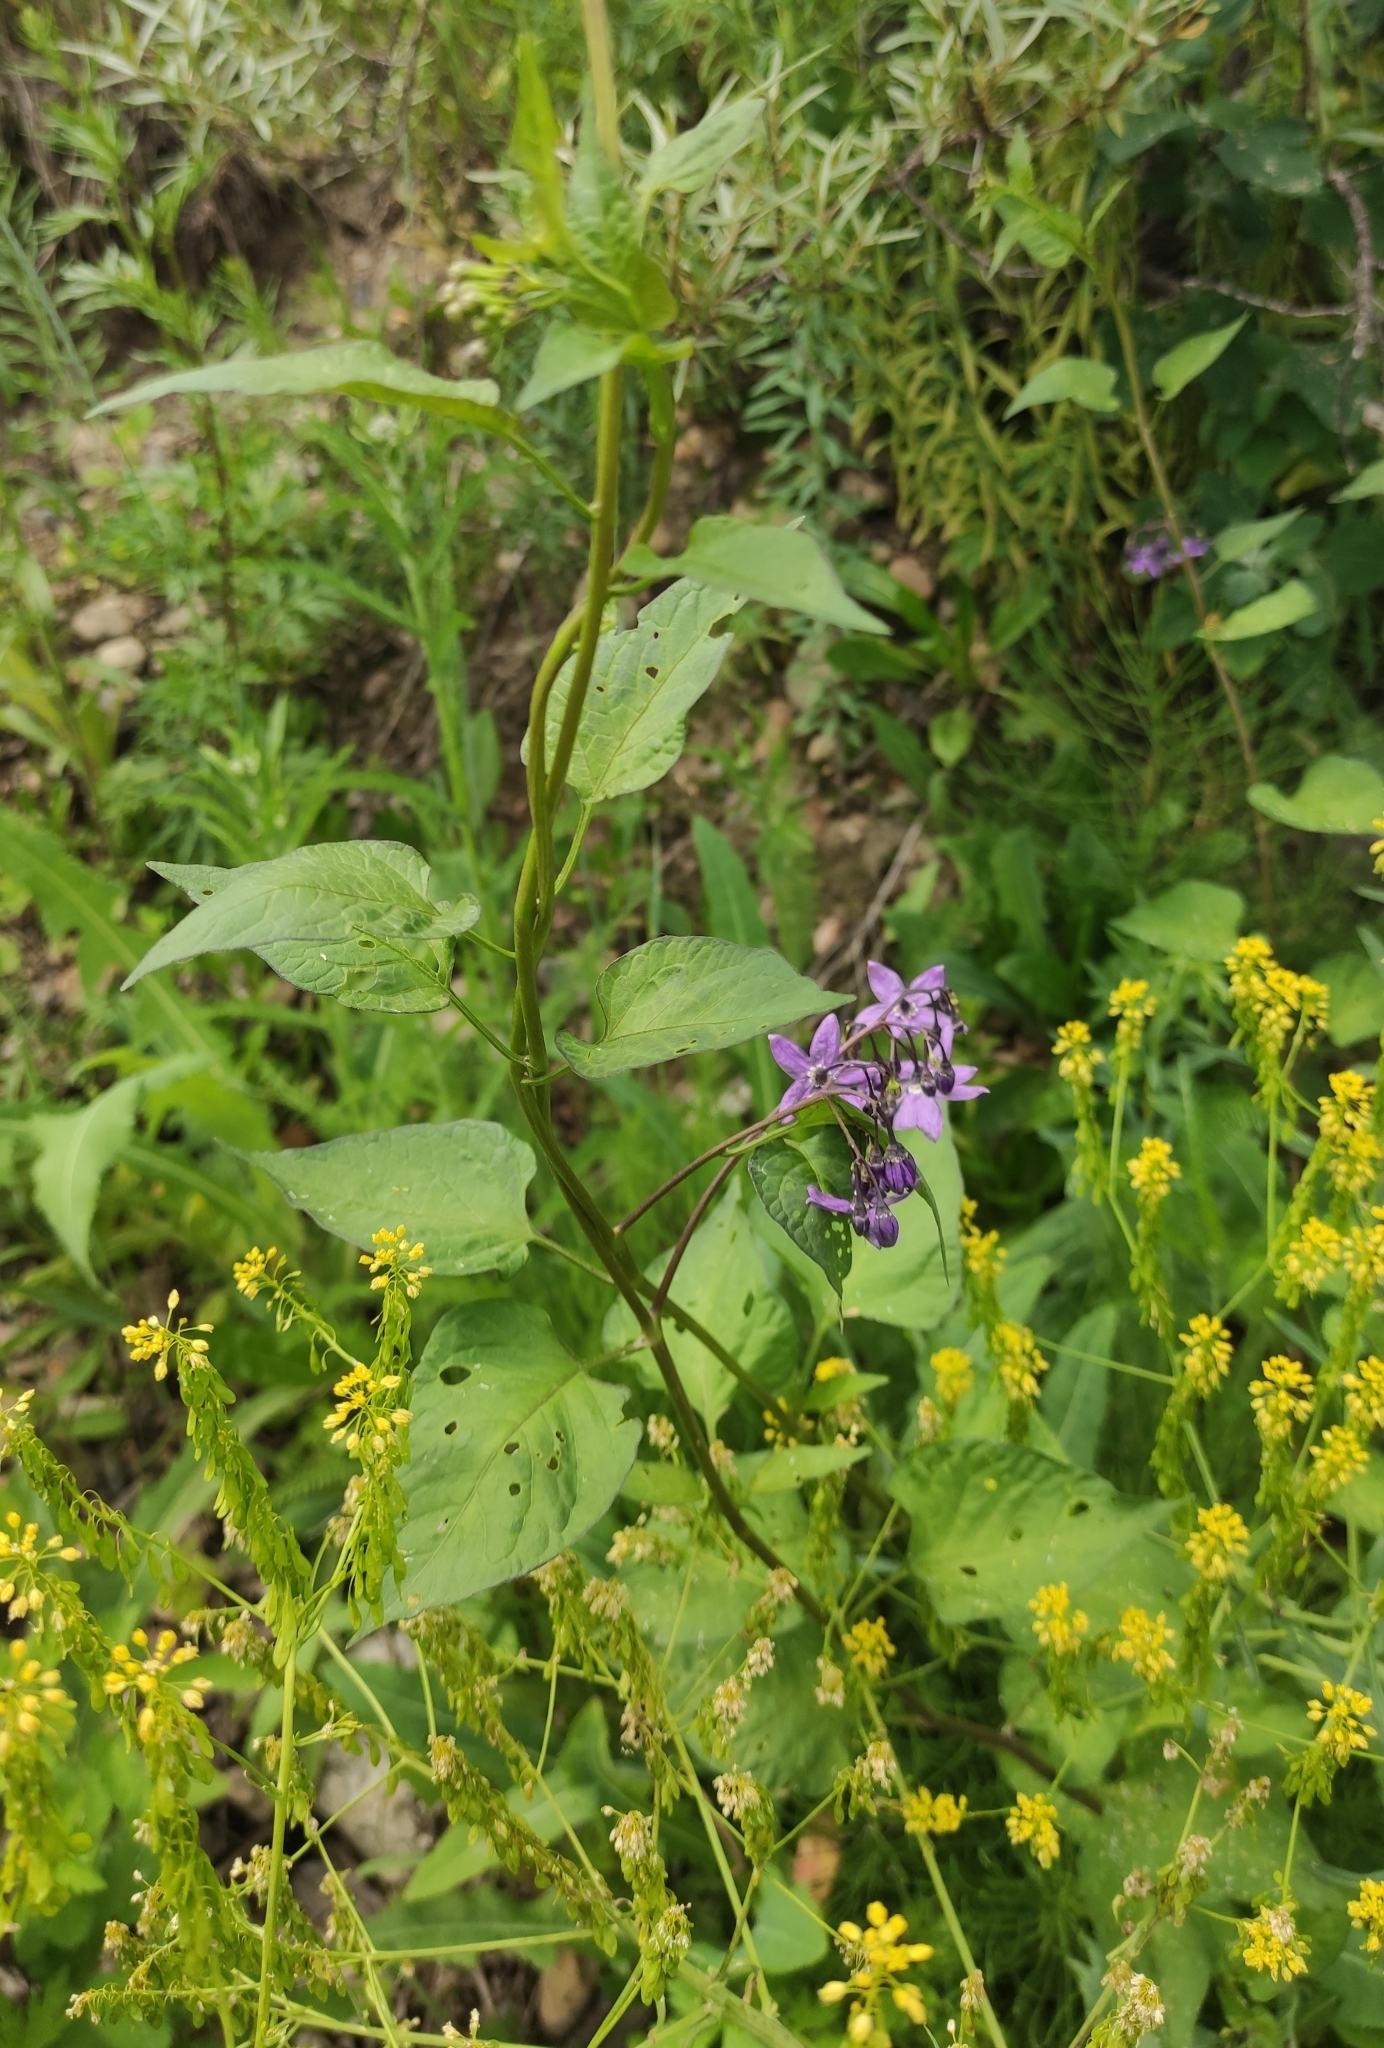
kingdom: Plantae
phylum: Tracheophyta
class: Magnoliopsida
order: Solanales
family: Solanaceae
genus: Solanum
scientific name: Solanum dulcamara
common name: Climbing nightshade
